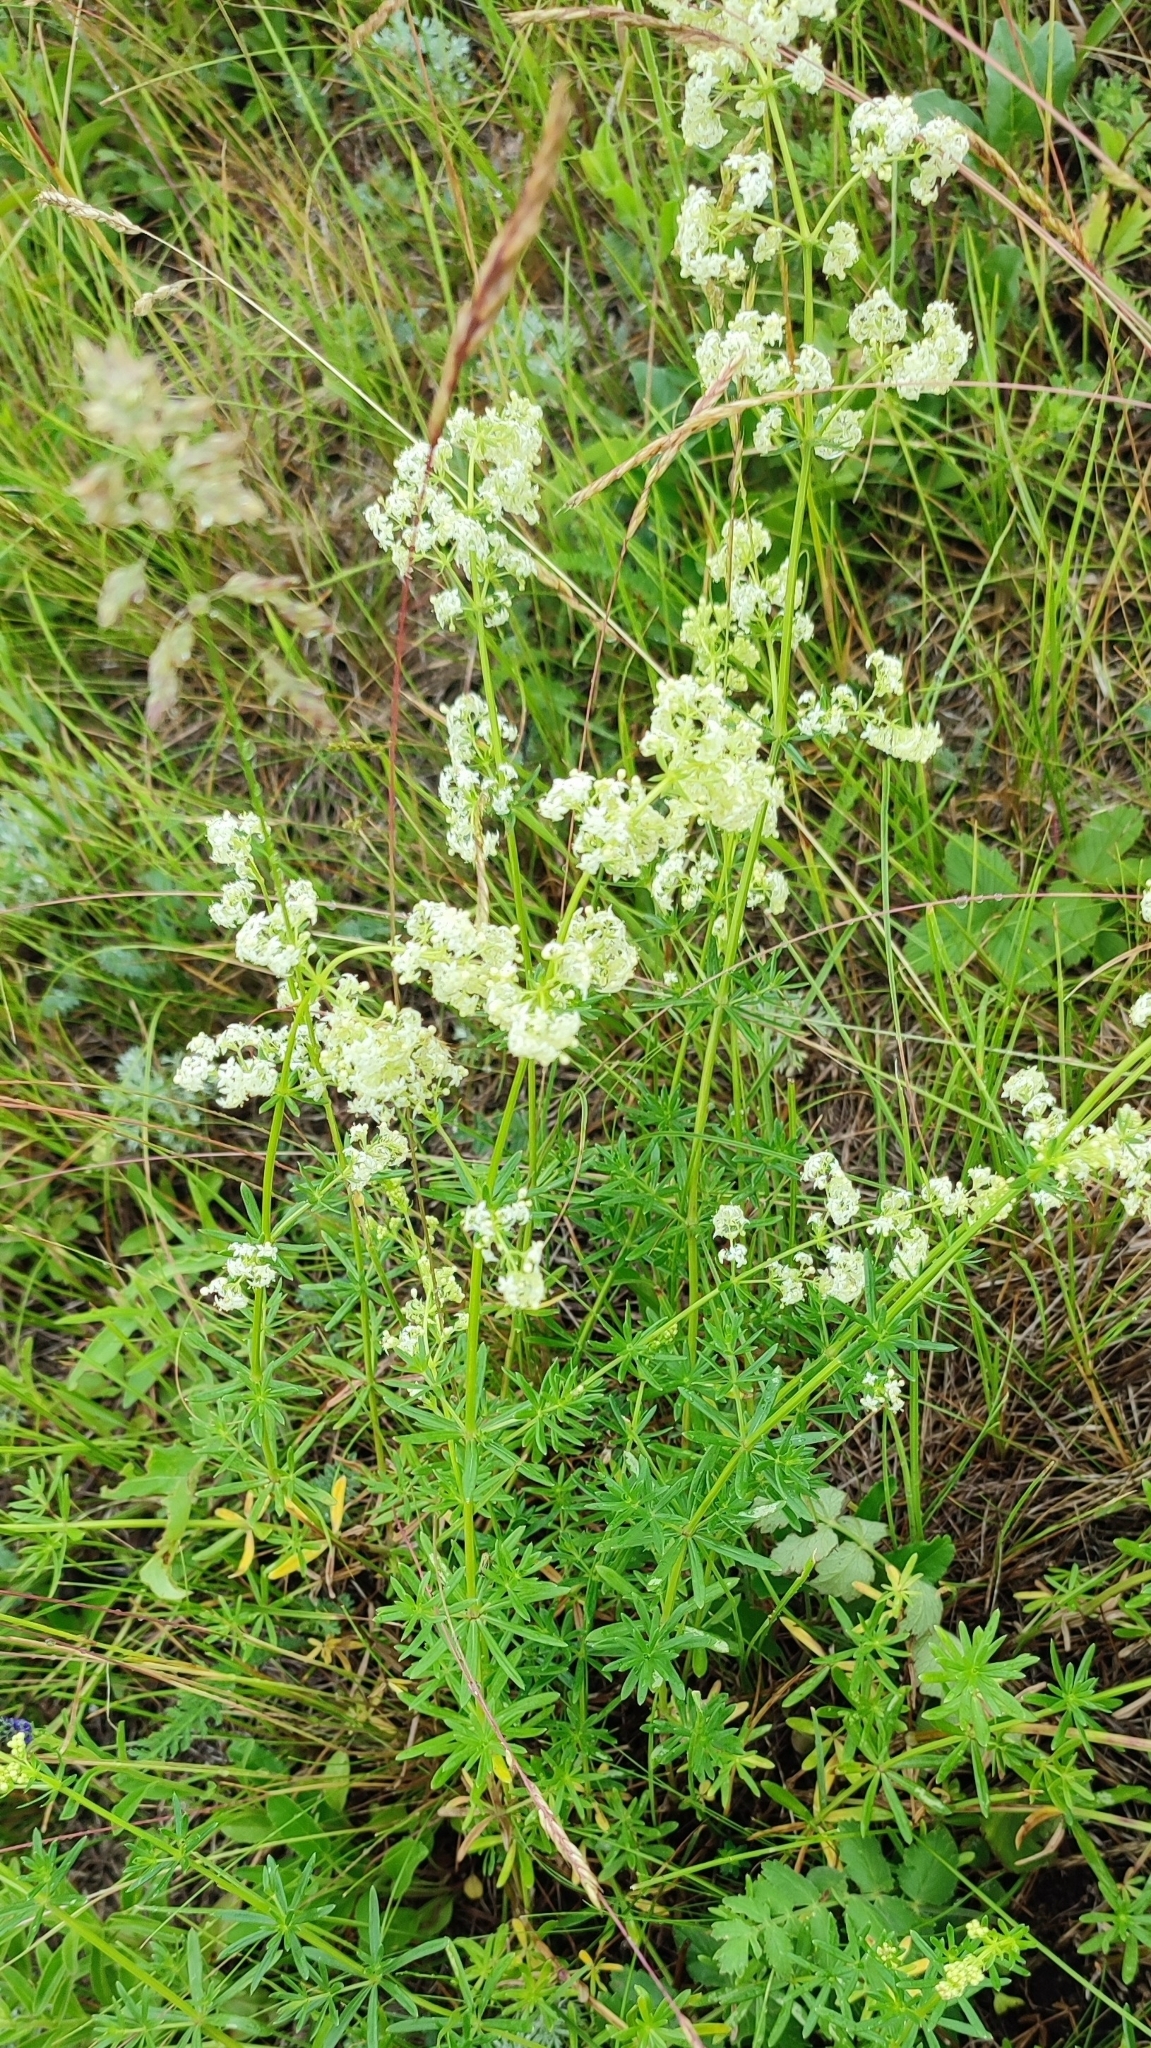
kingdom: Plantae
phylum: Tracheophyta
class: Magnoliopsida
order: Gentianales
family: Rubiaceae
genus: Galium
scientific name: Galium mollugo
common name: Hedge bedstraw
